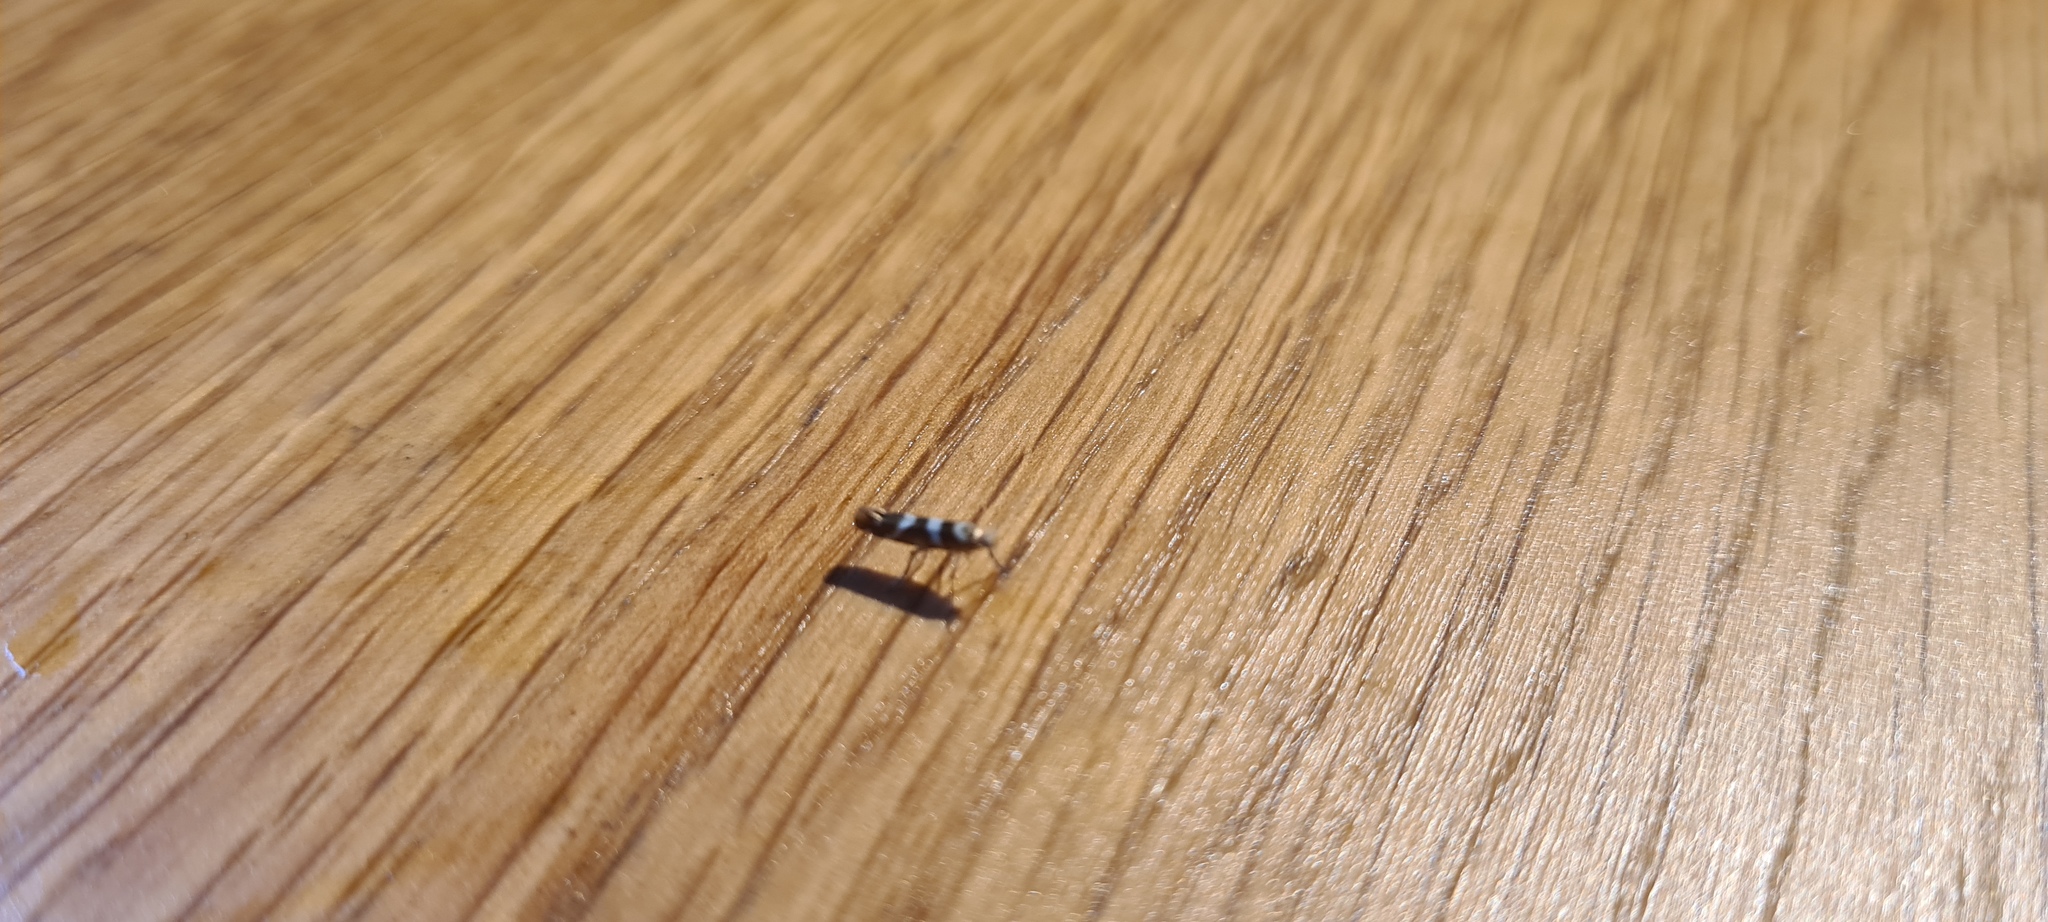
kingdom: Animalia
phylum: Arthropoda
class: Insecta
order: Lepidoptera
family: Argyresthiidae
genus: Argyresthia
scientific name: Argyresthia goedartella
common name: Golden argent
